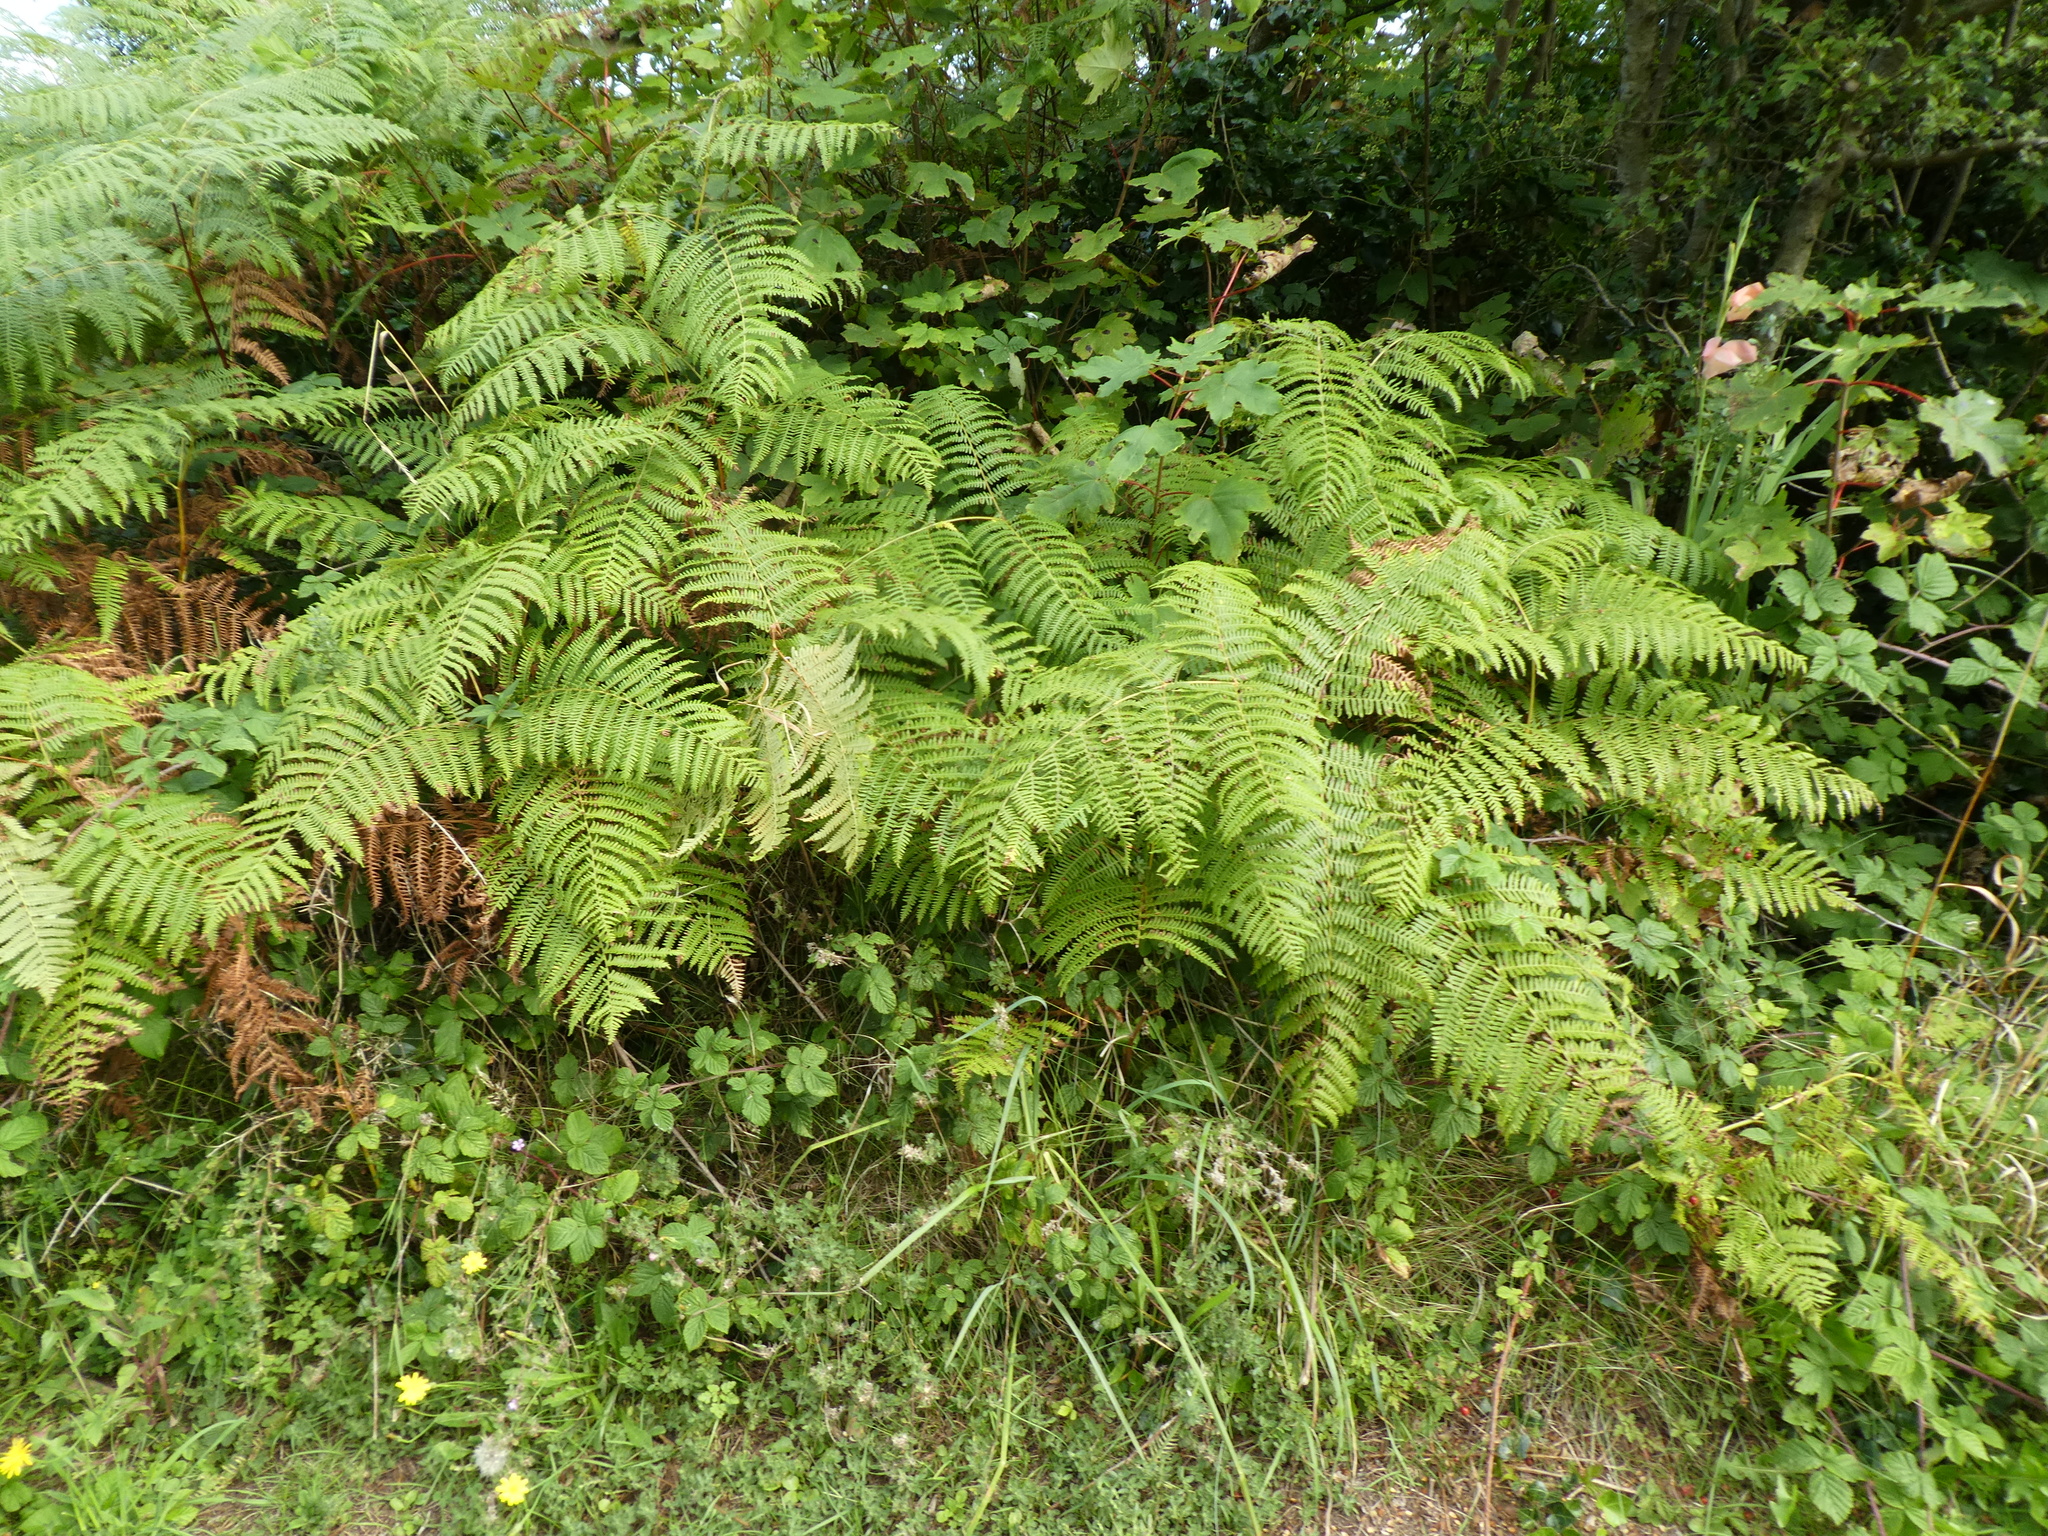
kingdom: Plantae
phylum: Tracheophyta
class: Polypodiopsida
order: Polypodiales
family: Dennstaedtiaceae
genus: Pteridium
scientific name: Pteridium aquilinum
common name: Bracken
